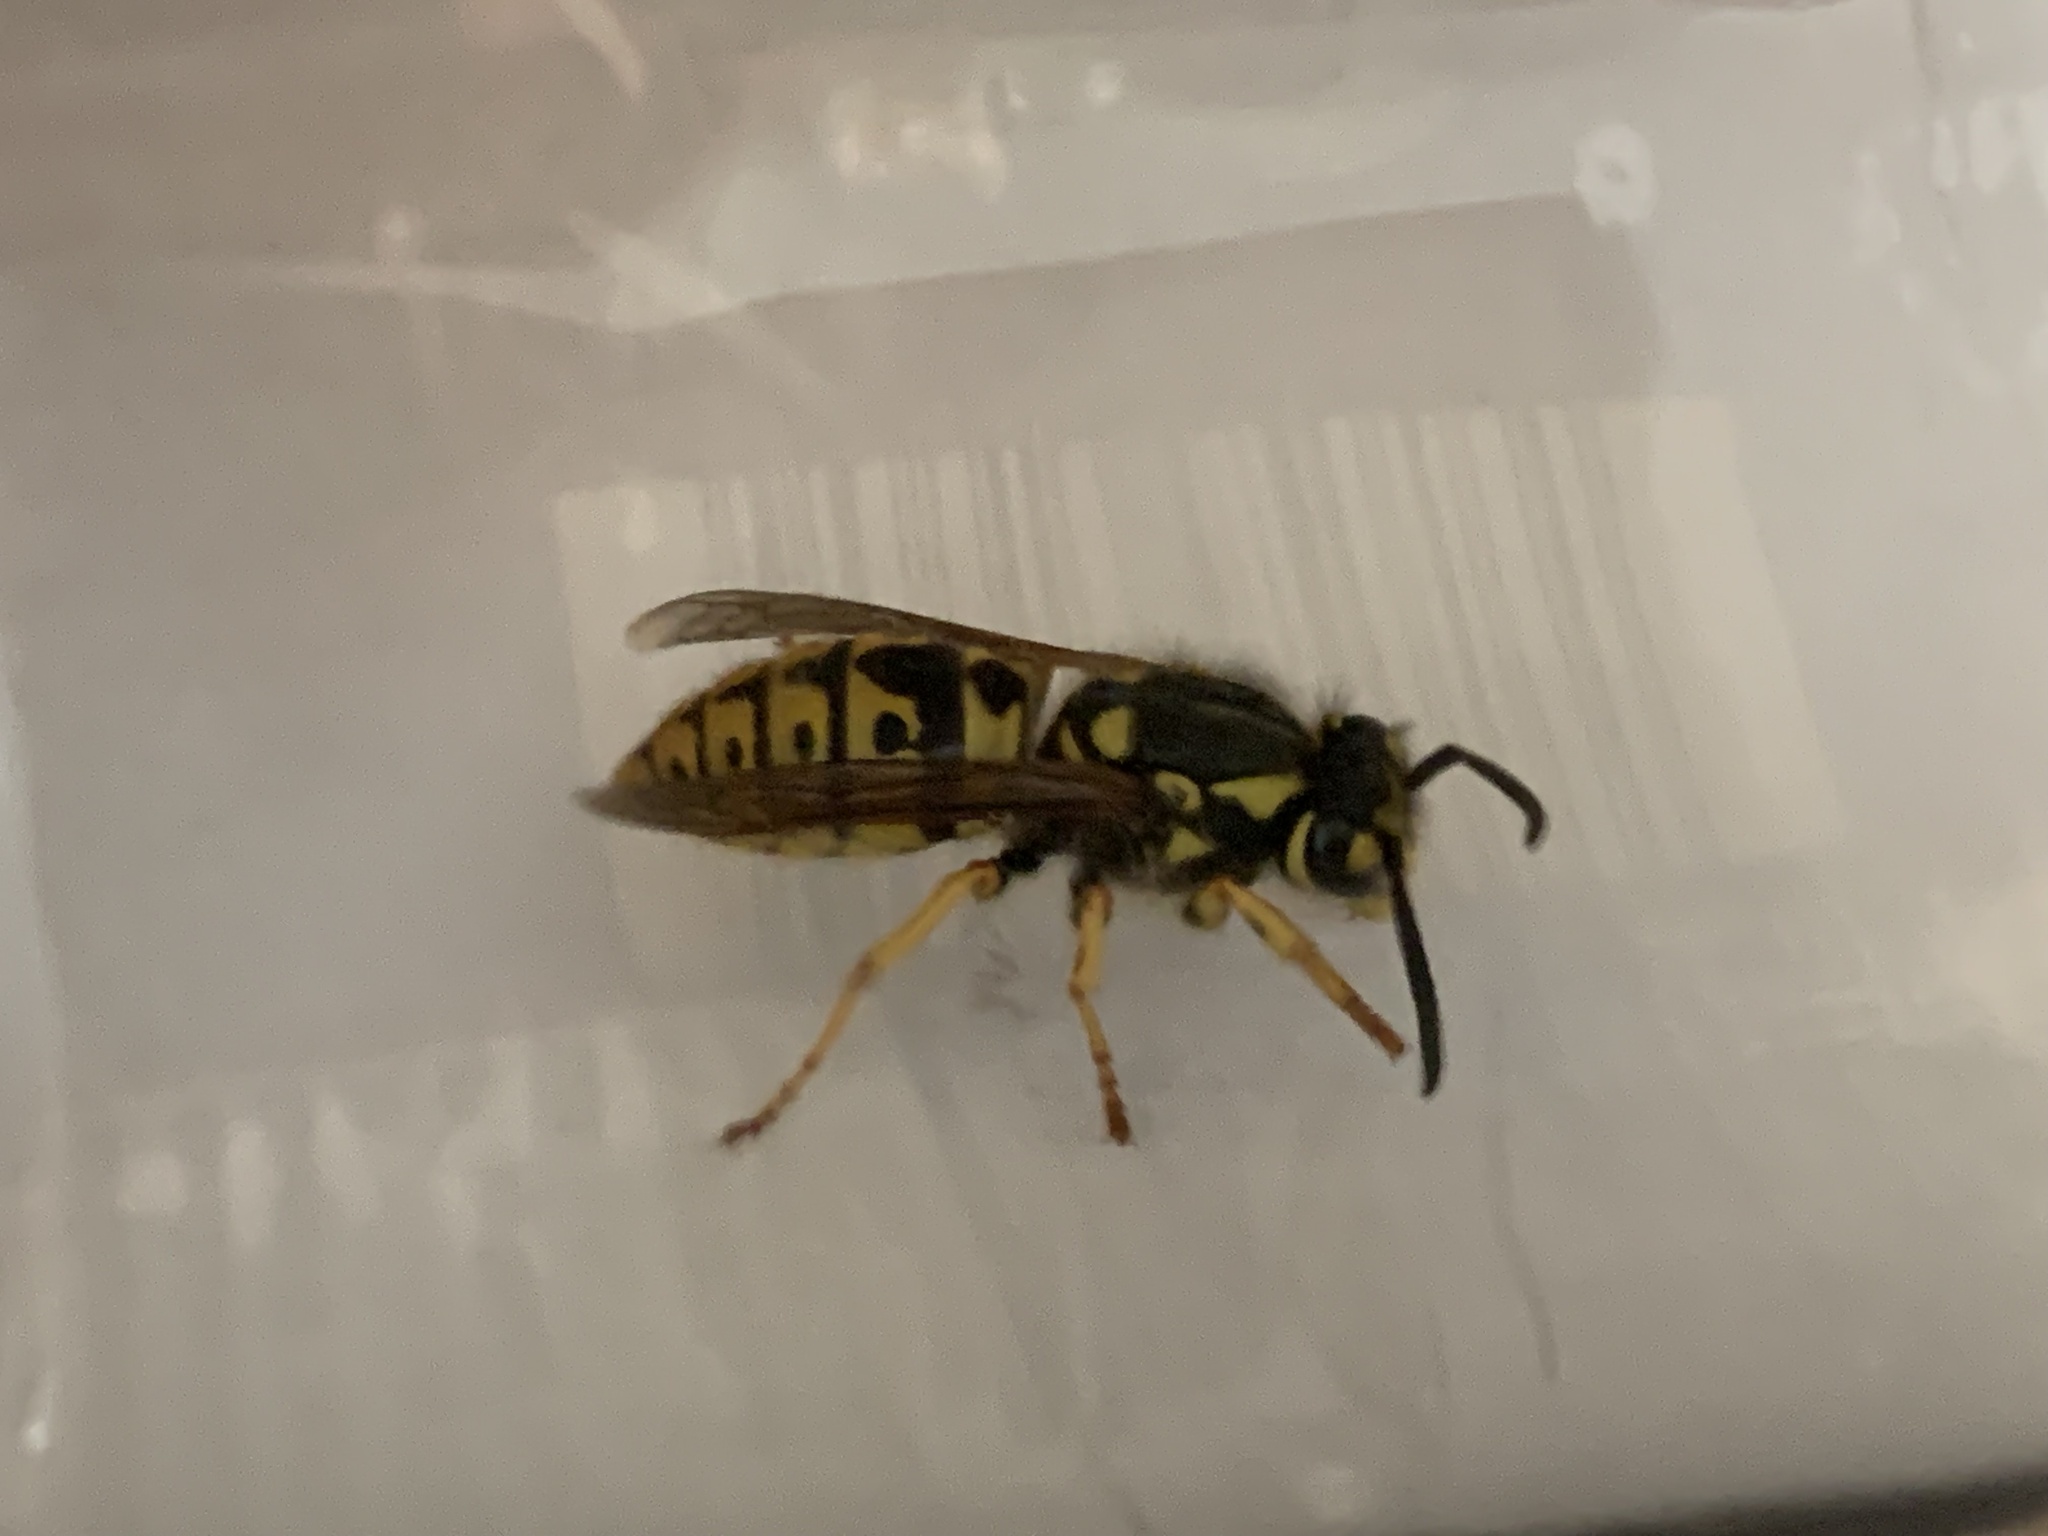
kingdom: Animalia
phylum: Arthropoda
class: Insecta
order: Hymenoptera
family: Vespidae
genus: Vespula
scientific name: Vespula germanica
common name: German wasp
